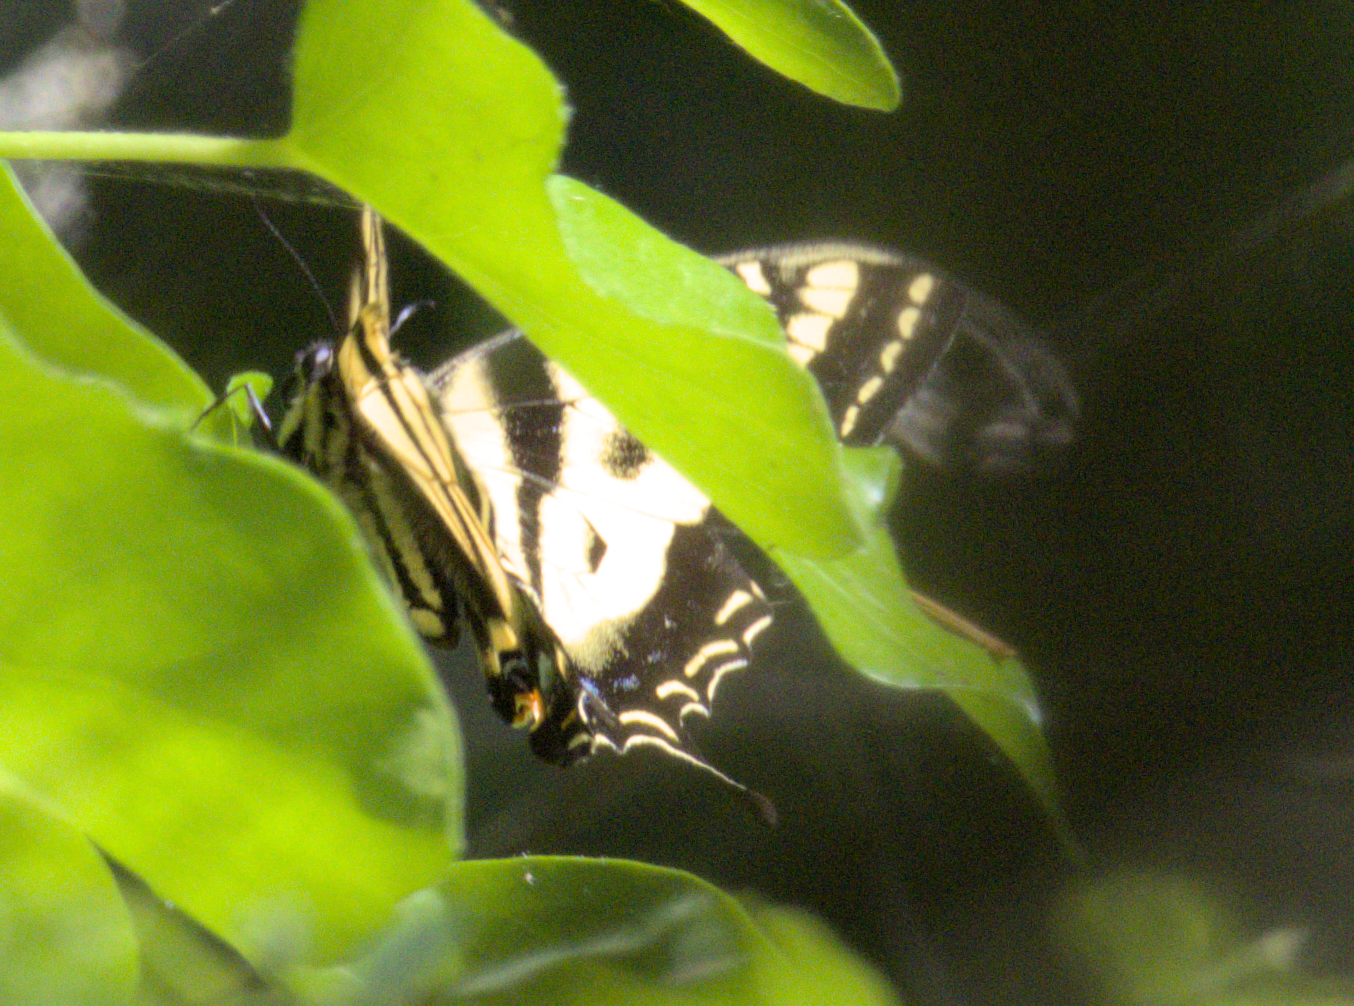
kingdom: Animalia
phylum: Arthropoda
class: Insecta
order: Lepidoptera
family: Papilionidae
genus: Papilio
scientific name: Papilio rutulus
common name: Western tiger swallowtail
